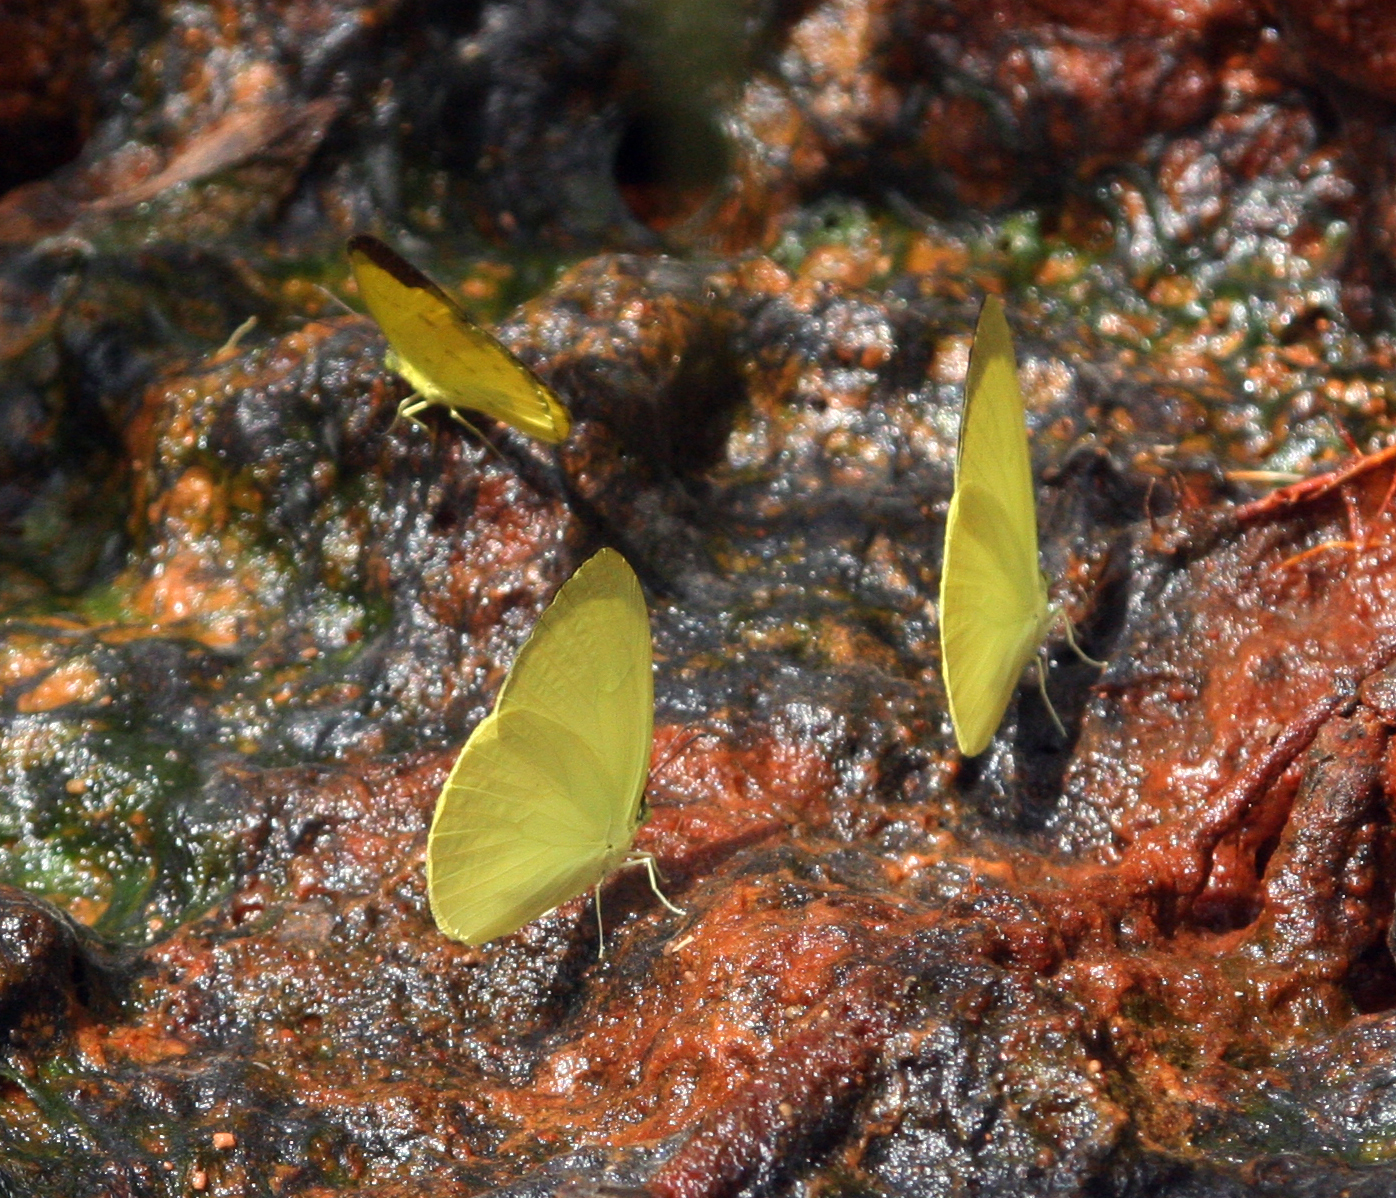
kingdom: Animalia
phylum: Arthropoda
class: Insecta
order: Lepidoptera
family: Pieridae
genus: Gandaca
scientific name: Gandaca harina
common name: Tree yellow
